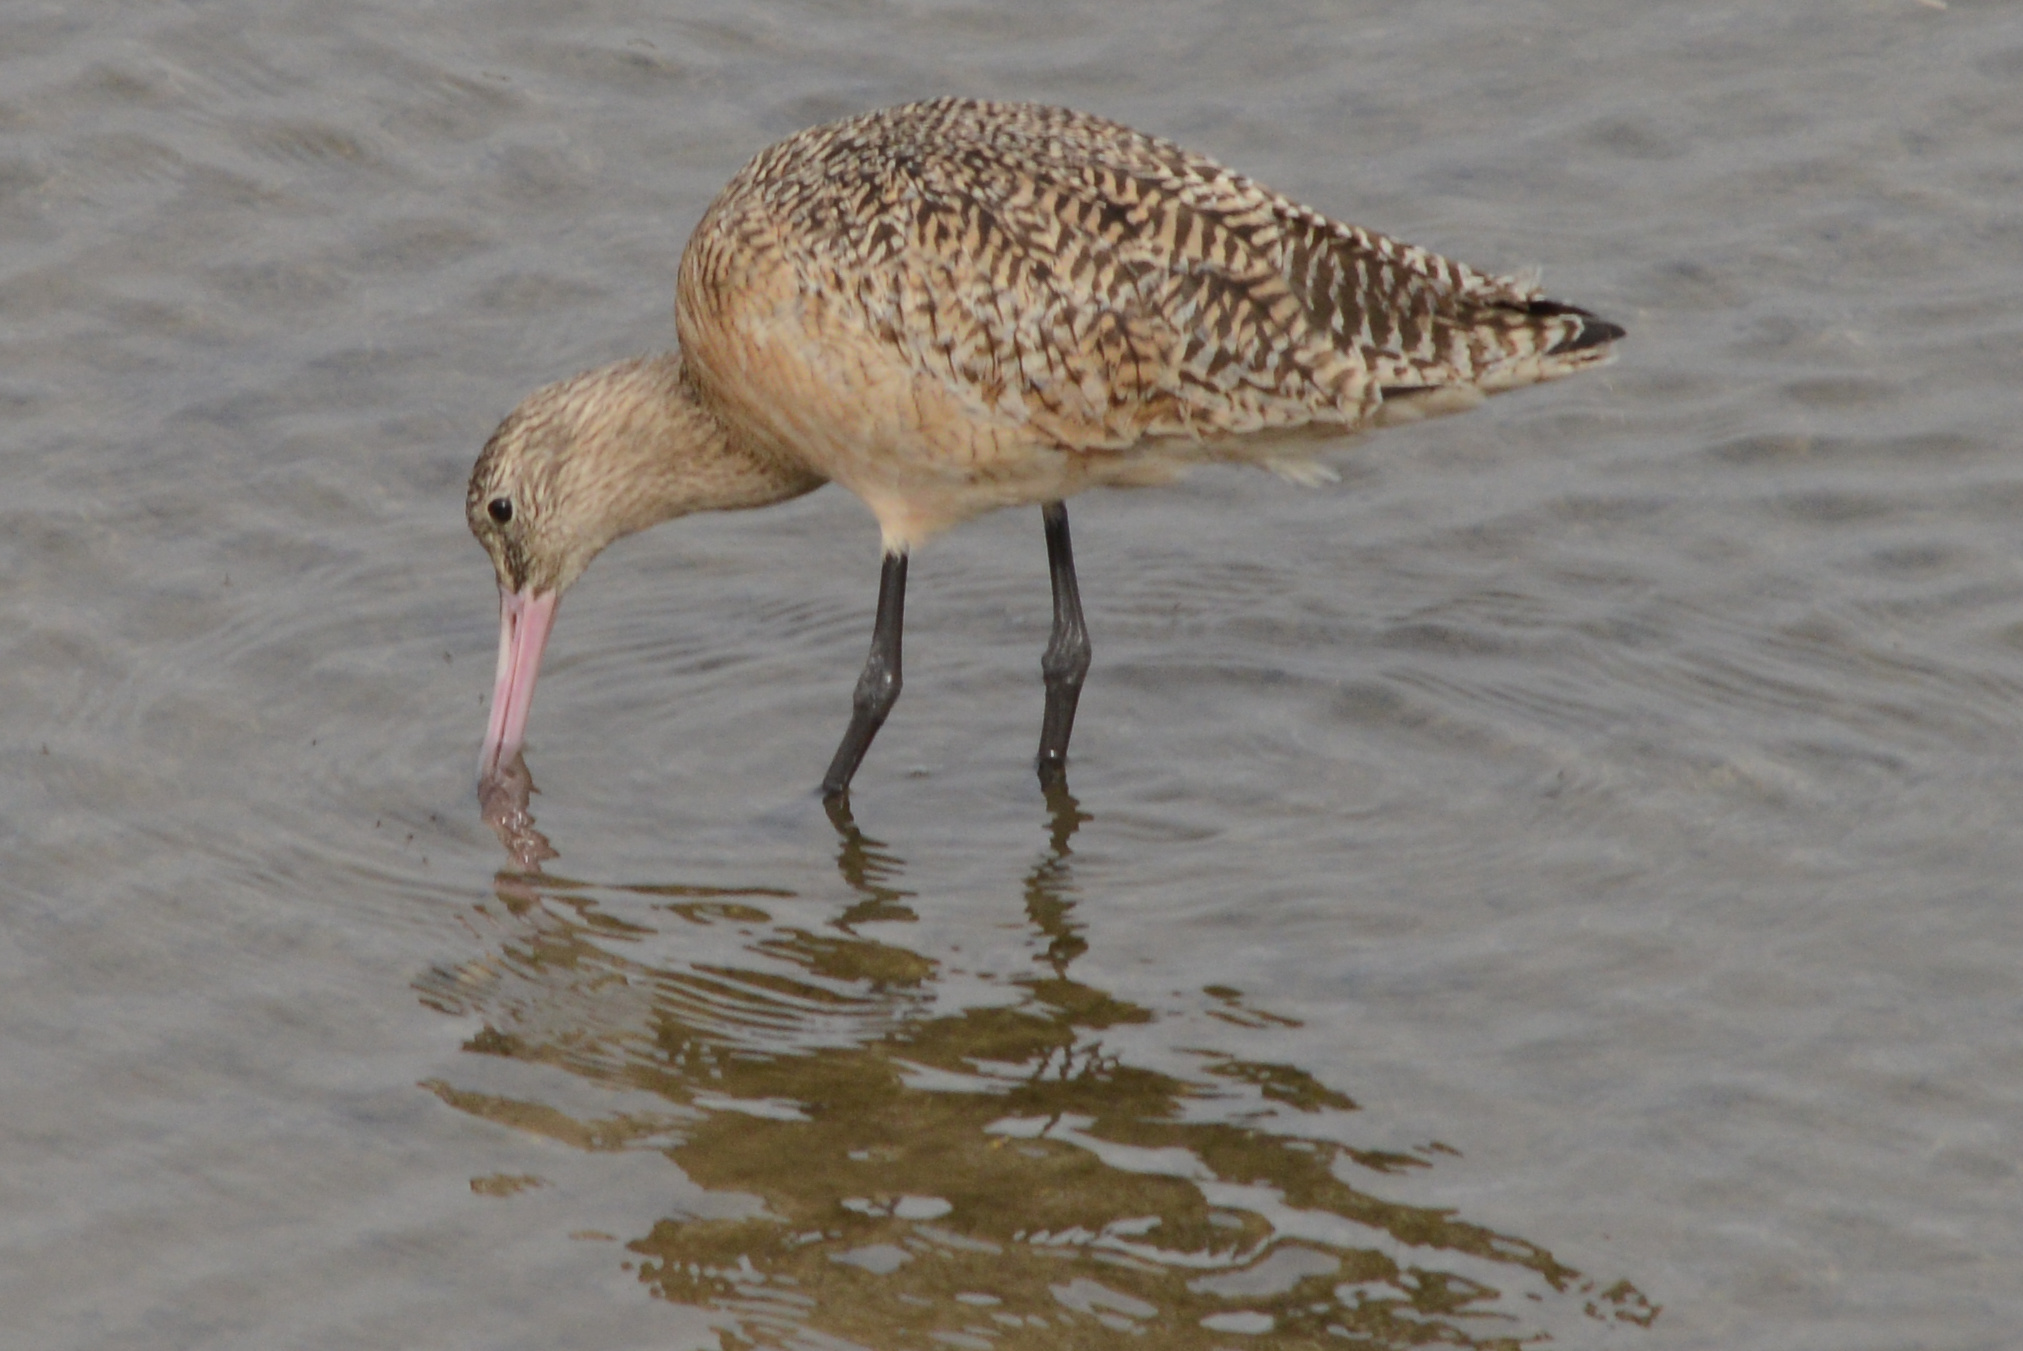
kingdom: Animalia
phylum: Chordata
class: Aves
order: Charadriiformes
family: Scolopacidae
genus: Limosa
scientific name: Limosa fedoa
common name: Marbled godwit
